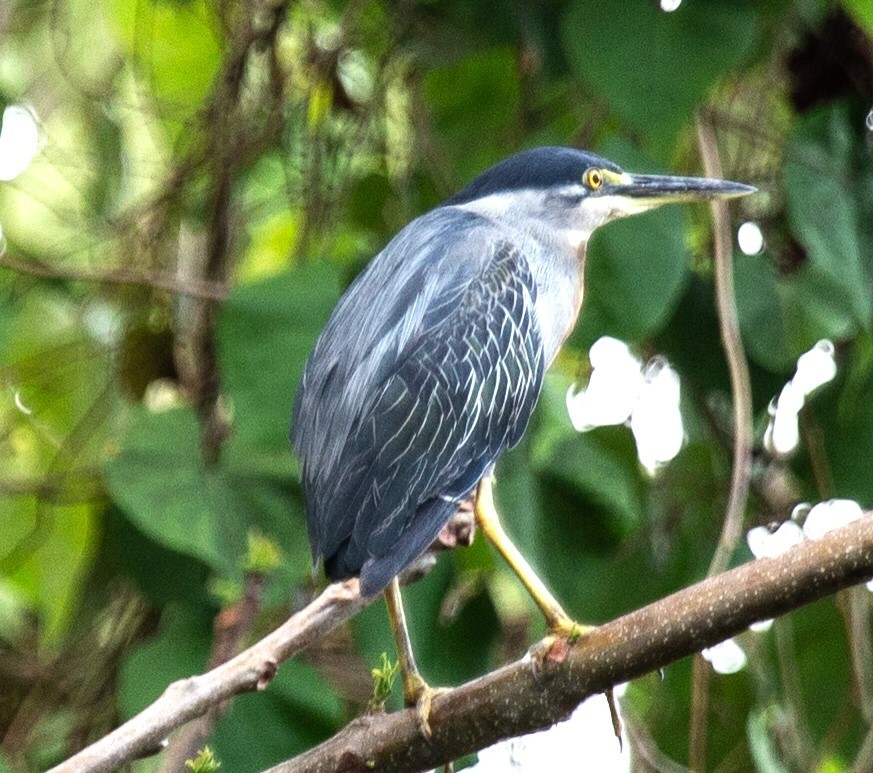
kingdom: Animalia
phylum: Chordata
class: Aves
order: Pelecaniformes
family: Ardeidae
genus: Butorides
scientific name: Butorides striata
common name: Striated heron
